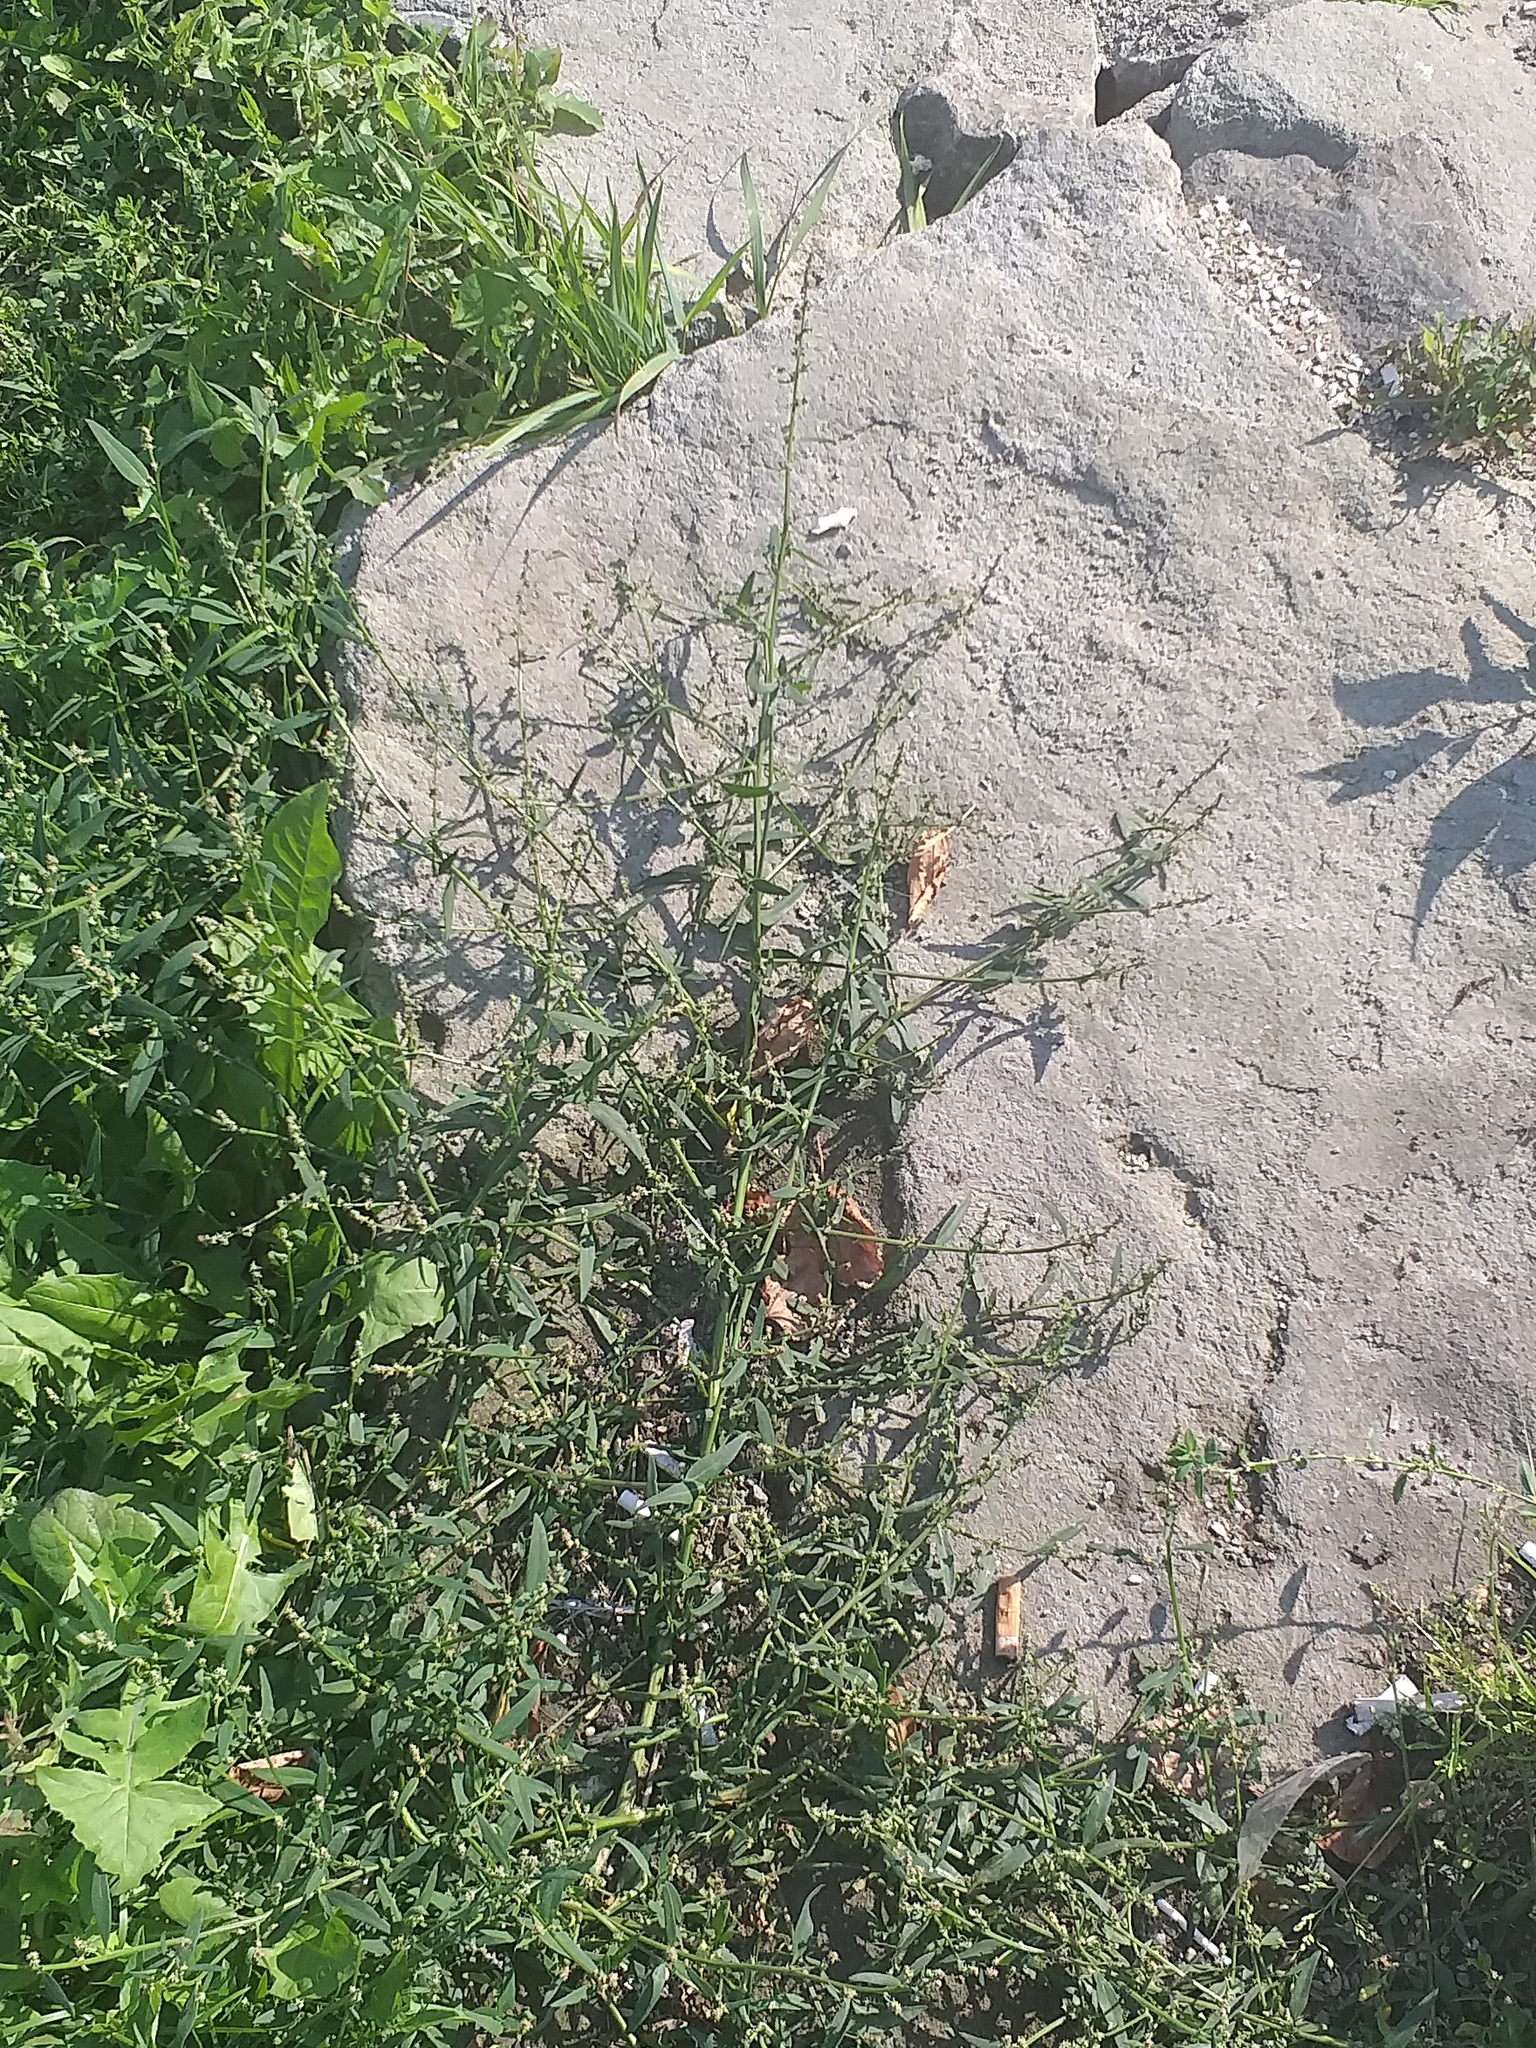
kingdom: Plantae
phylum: Tracheophyta
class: Magnoliopsida
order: Caryophyllales
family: Amaranthaceae
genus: Atriplex
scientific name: Atriplex patula
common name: Common orache
